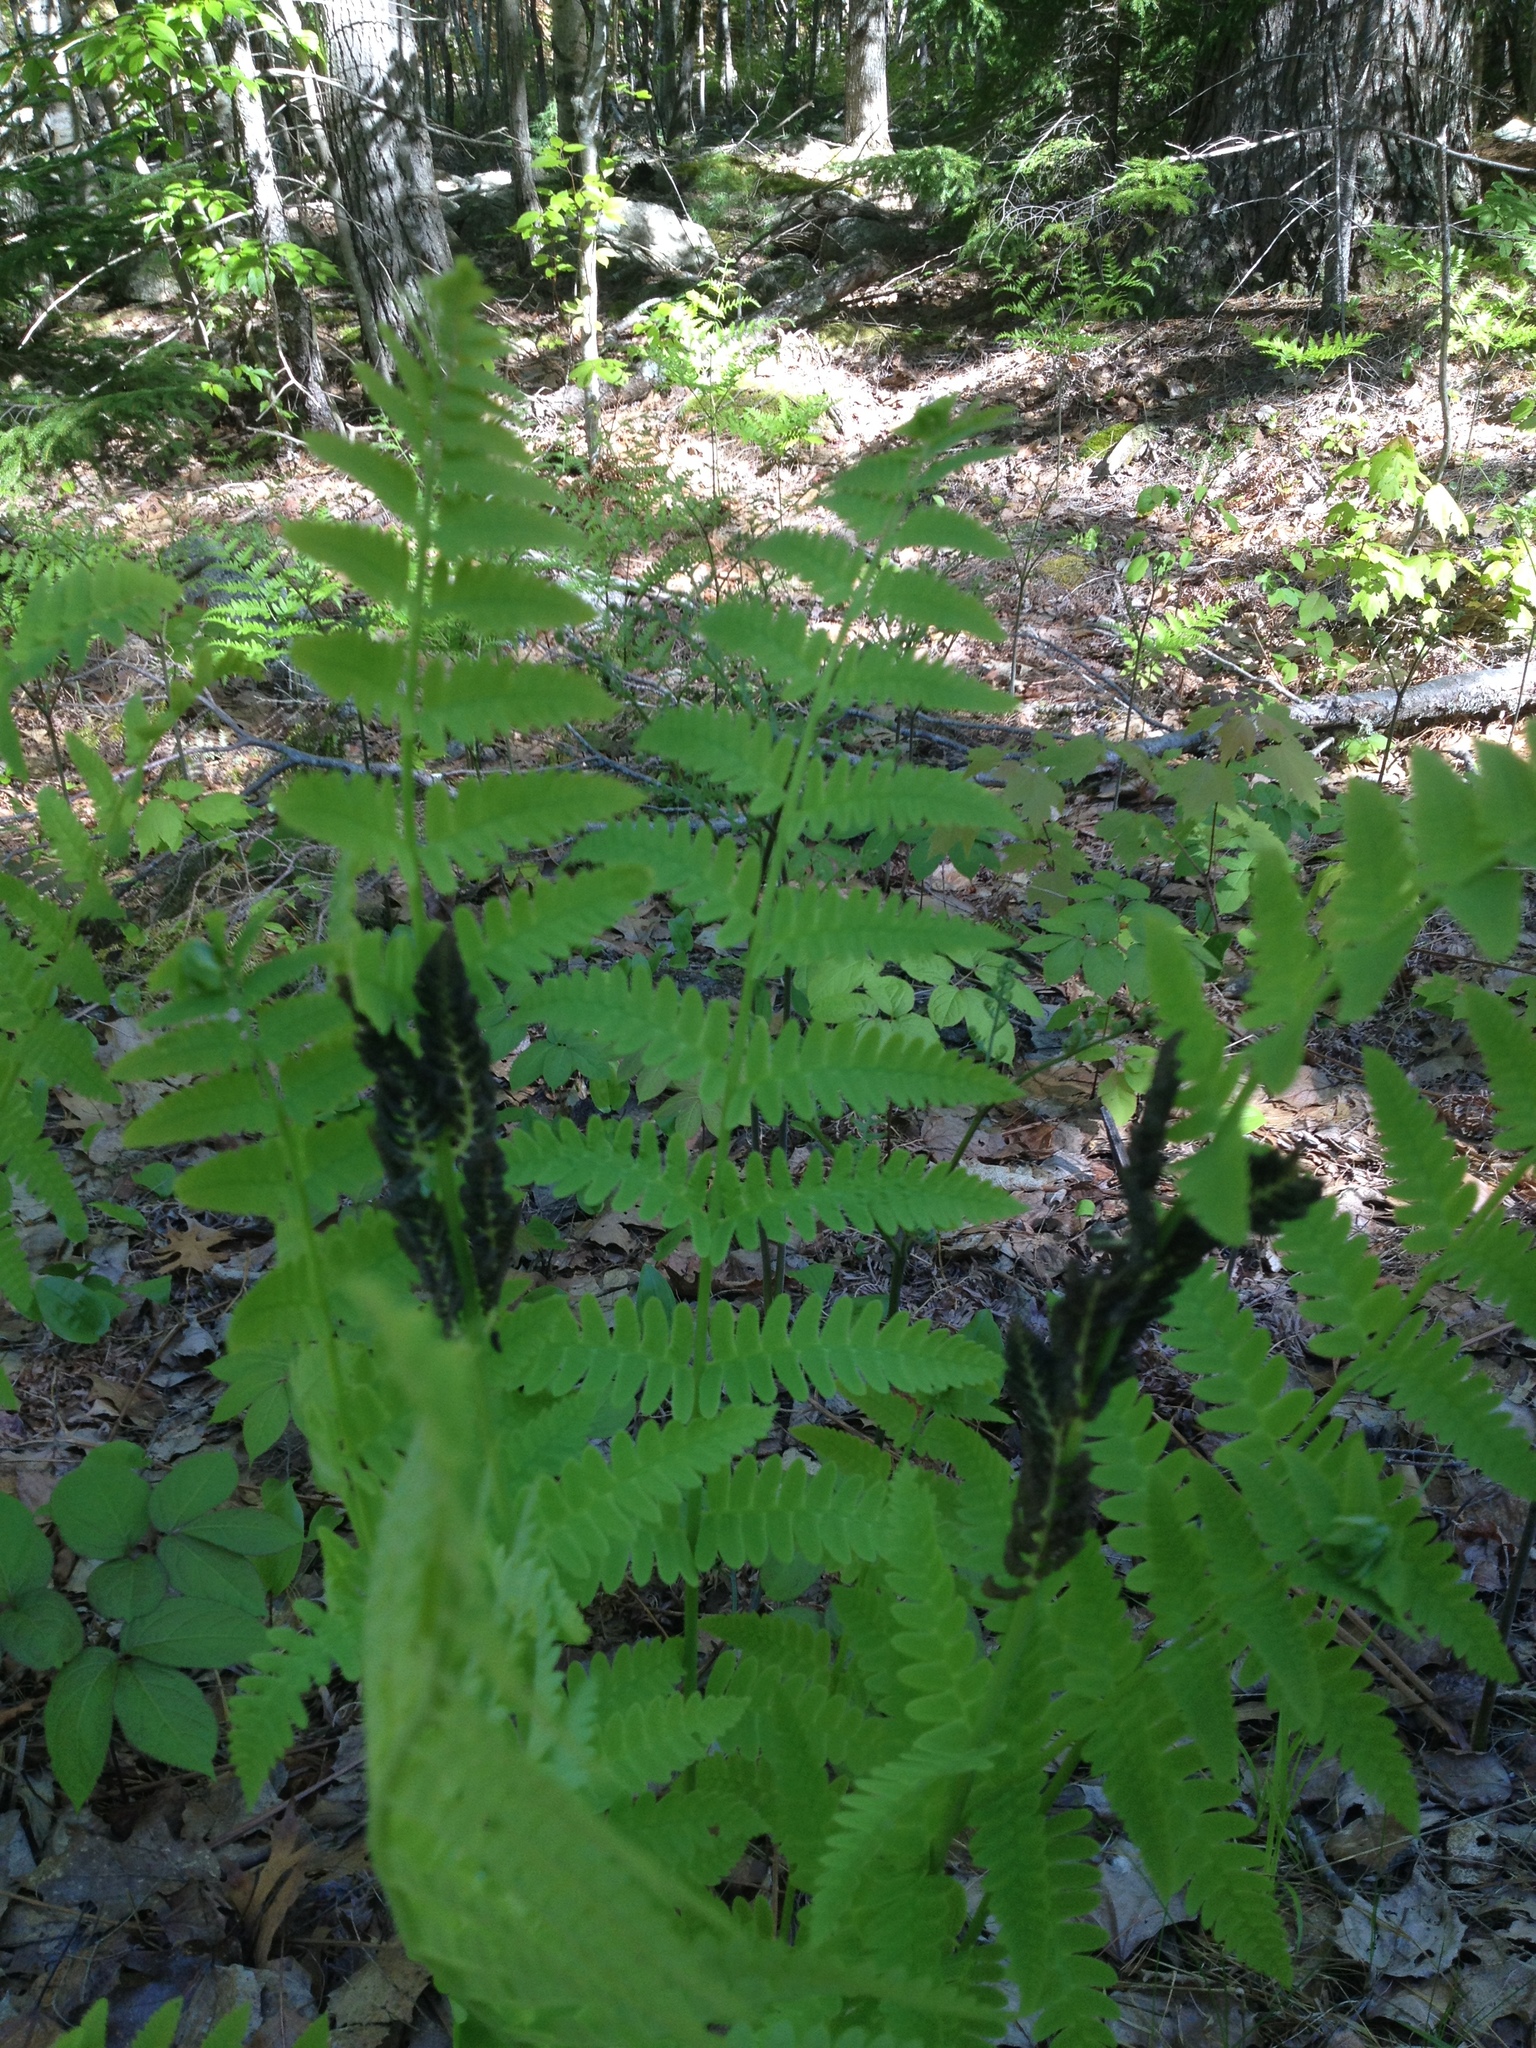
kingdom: Plantae
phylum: Tracheophyta
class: Polypodiopsida
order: Osmundales
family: Osmundaceae
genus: Claytosmunda
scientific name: Claytosmunda claytoniana
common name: Clayton's fern
